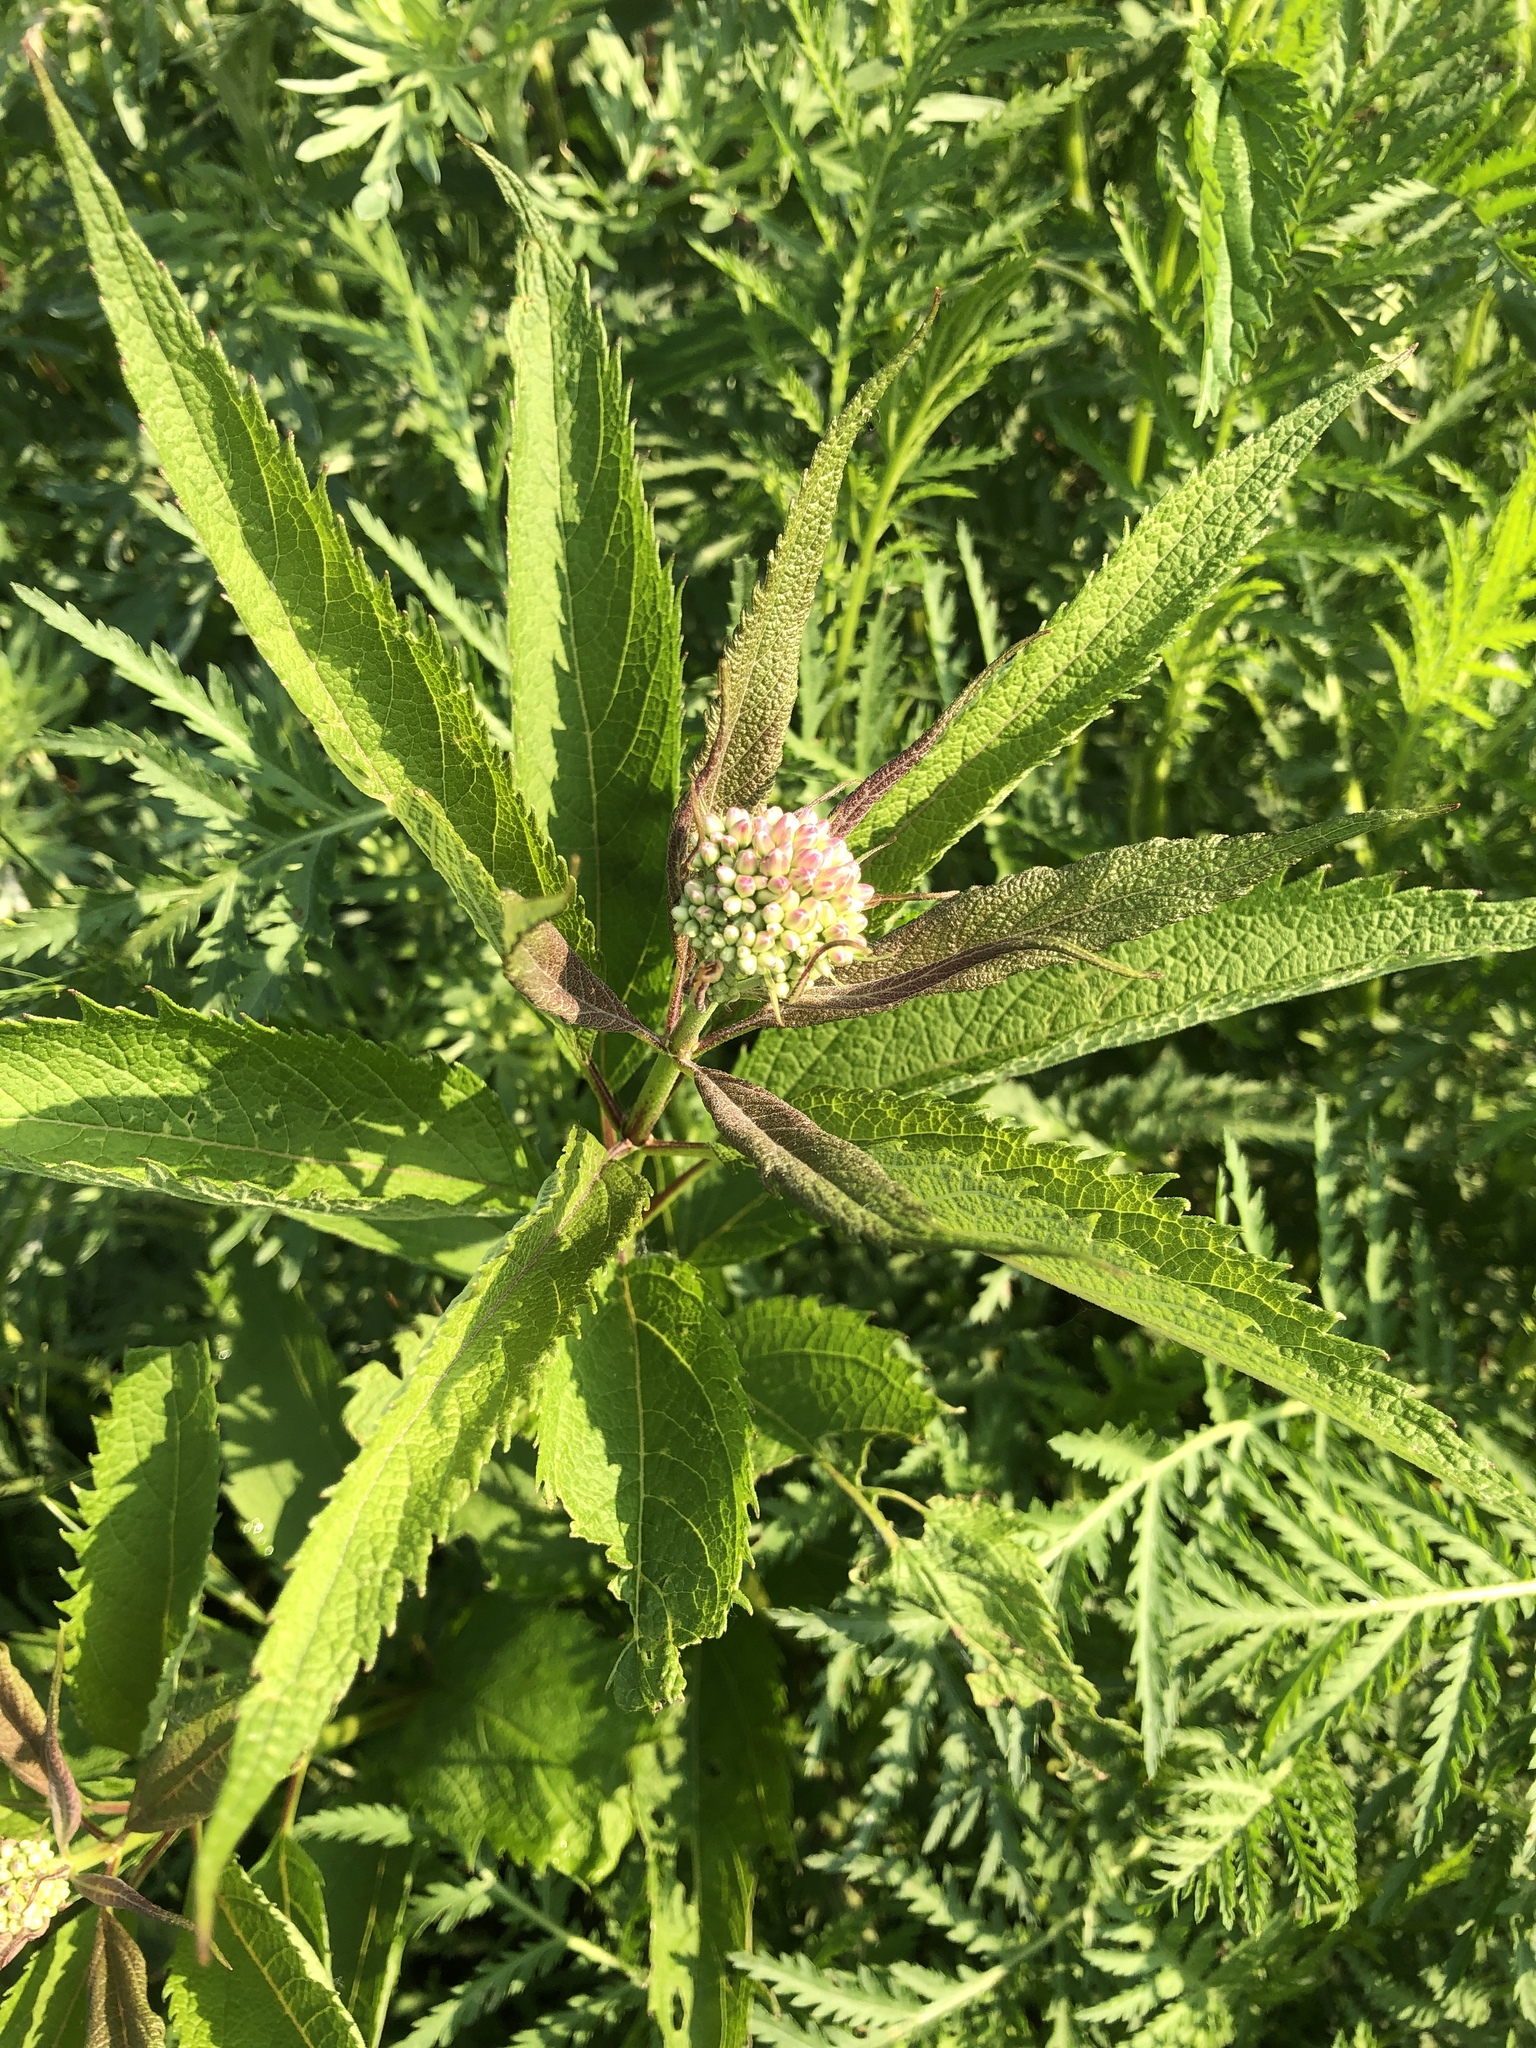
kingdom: Plantae
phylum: Tracheophyta
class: Magnoliopsida
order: Asterales
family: Asteraceae
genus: Eutrochium
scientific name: Eutrochium maculatum
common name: Spotted joe pye weed
